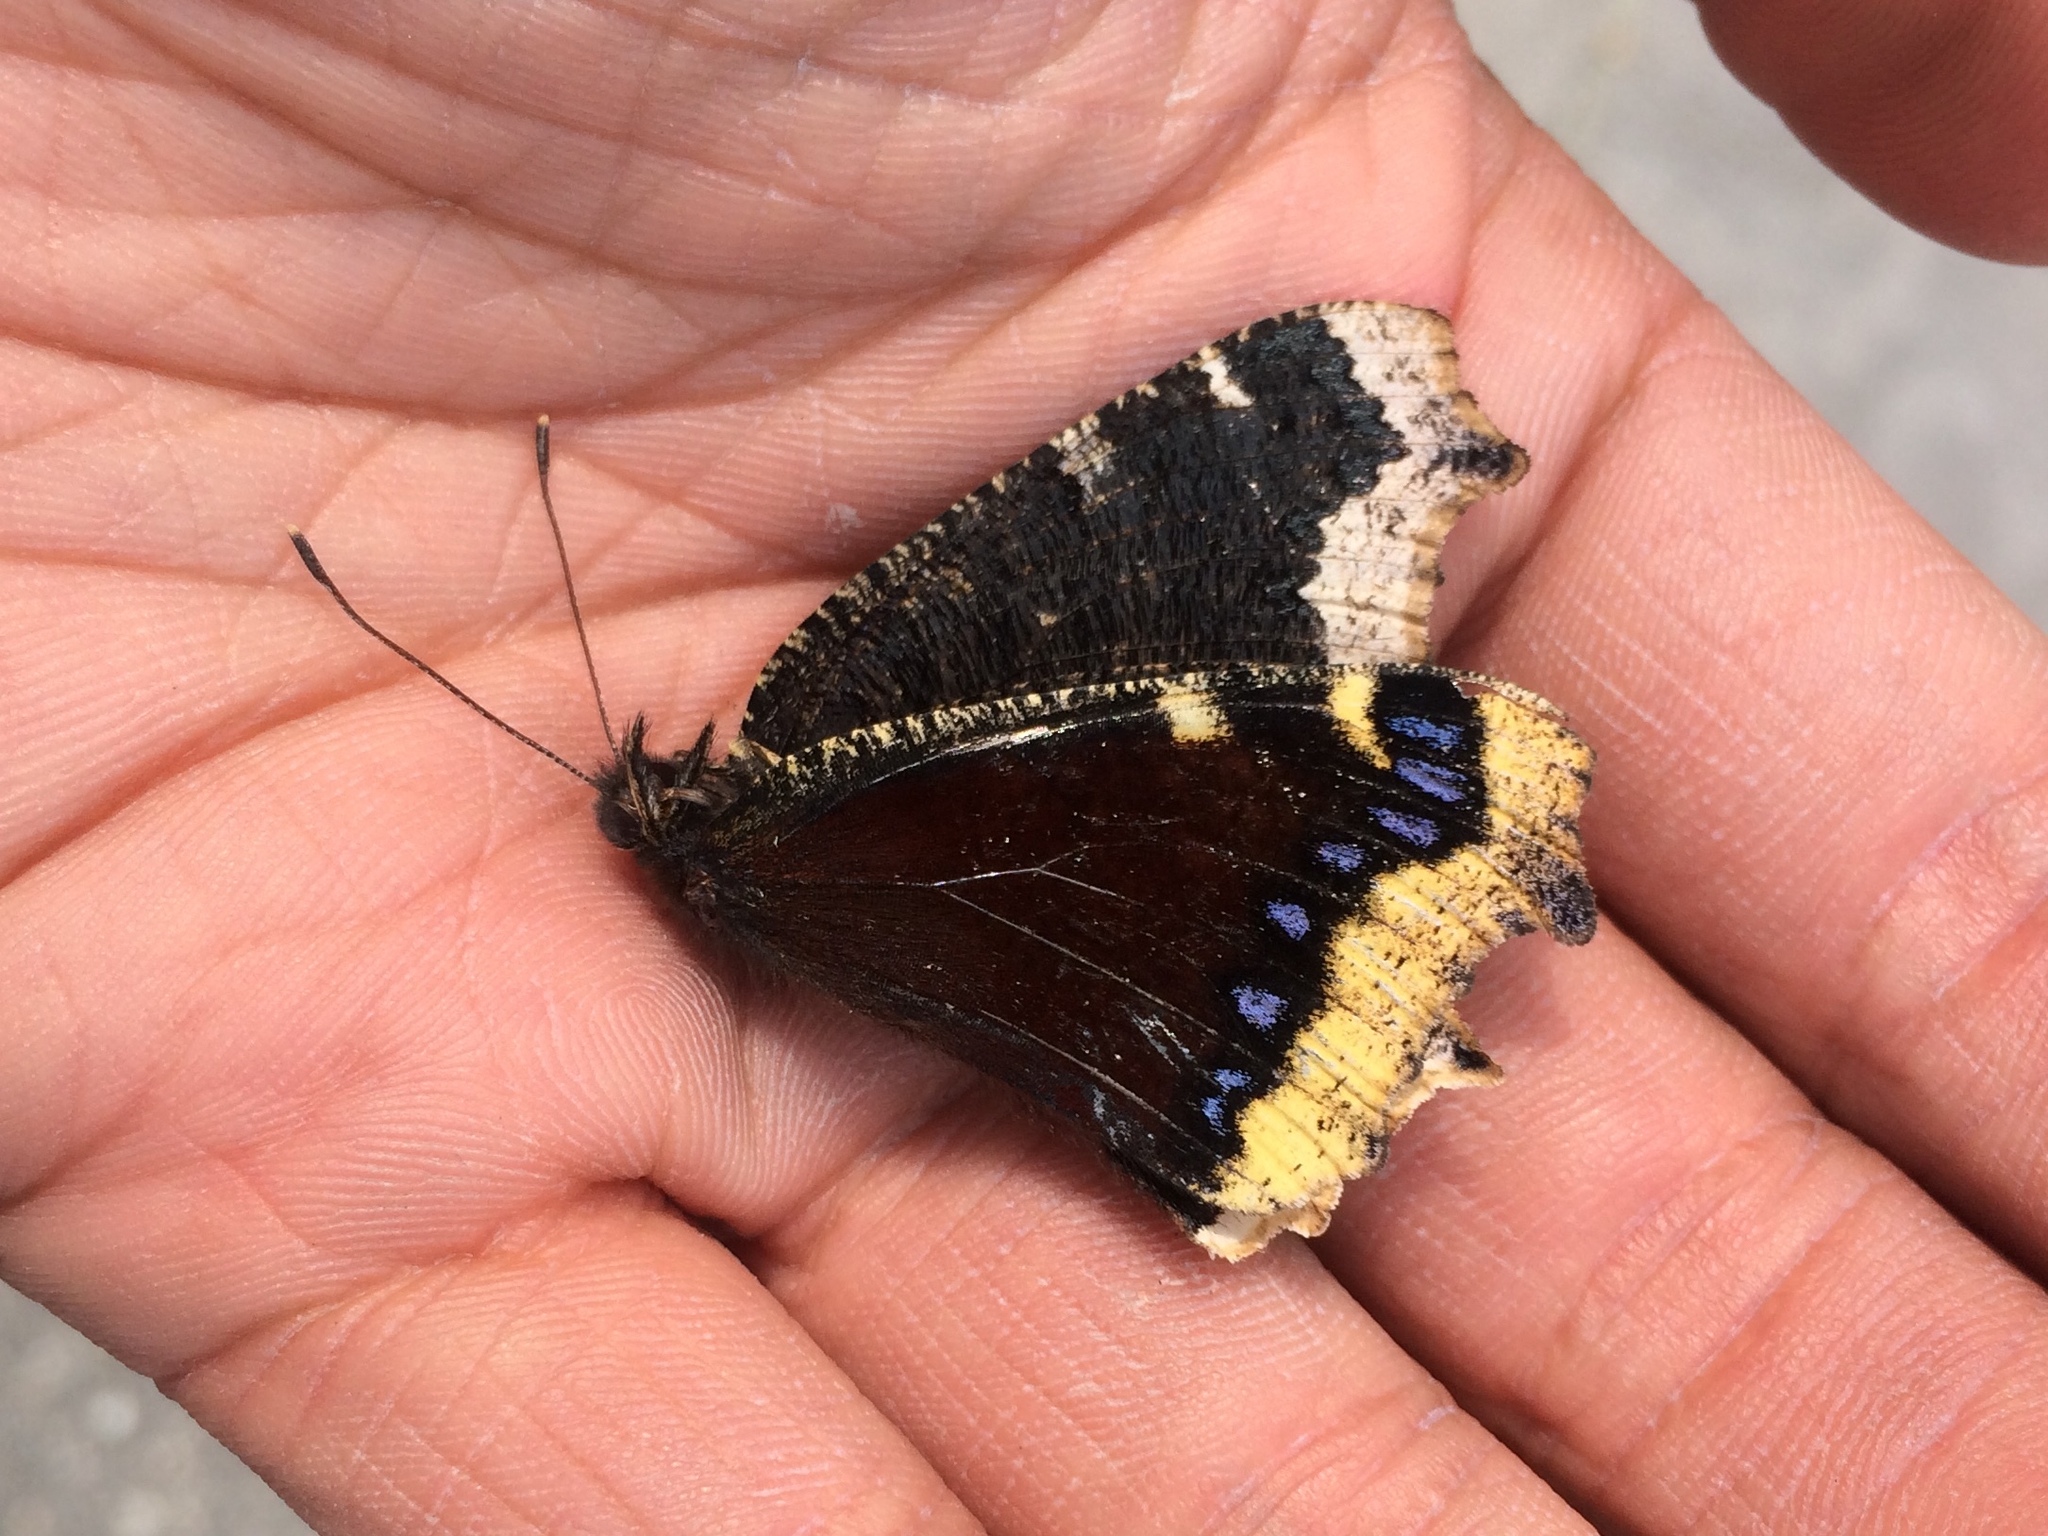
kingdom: Animalia
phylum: Arthropoda
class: Insecta
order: Lepidoptera
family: Nymphalidae
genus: Nymphalis
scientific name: Nymphalis antiopa
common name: Camberwell beauty
